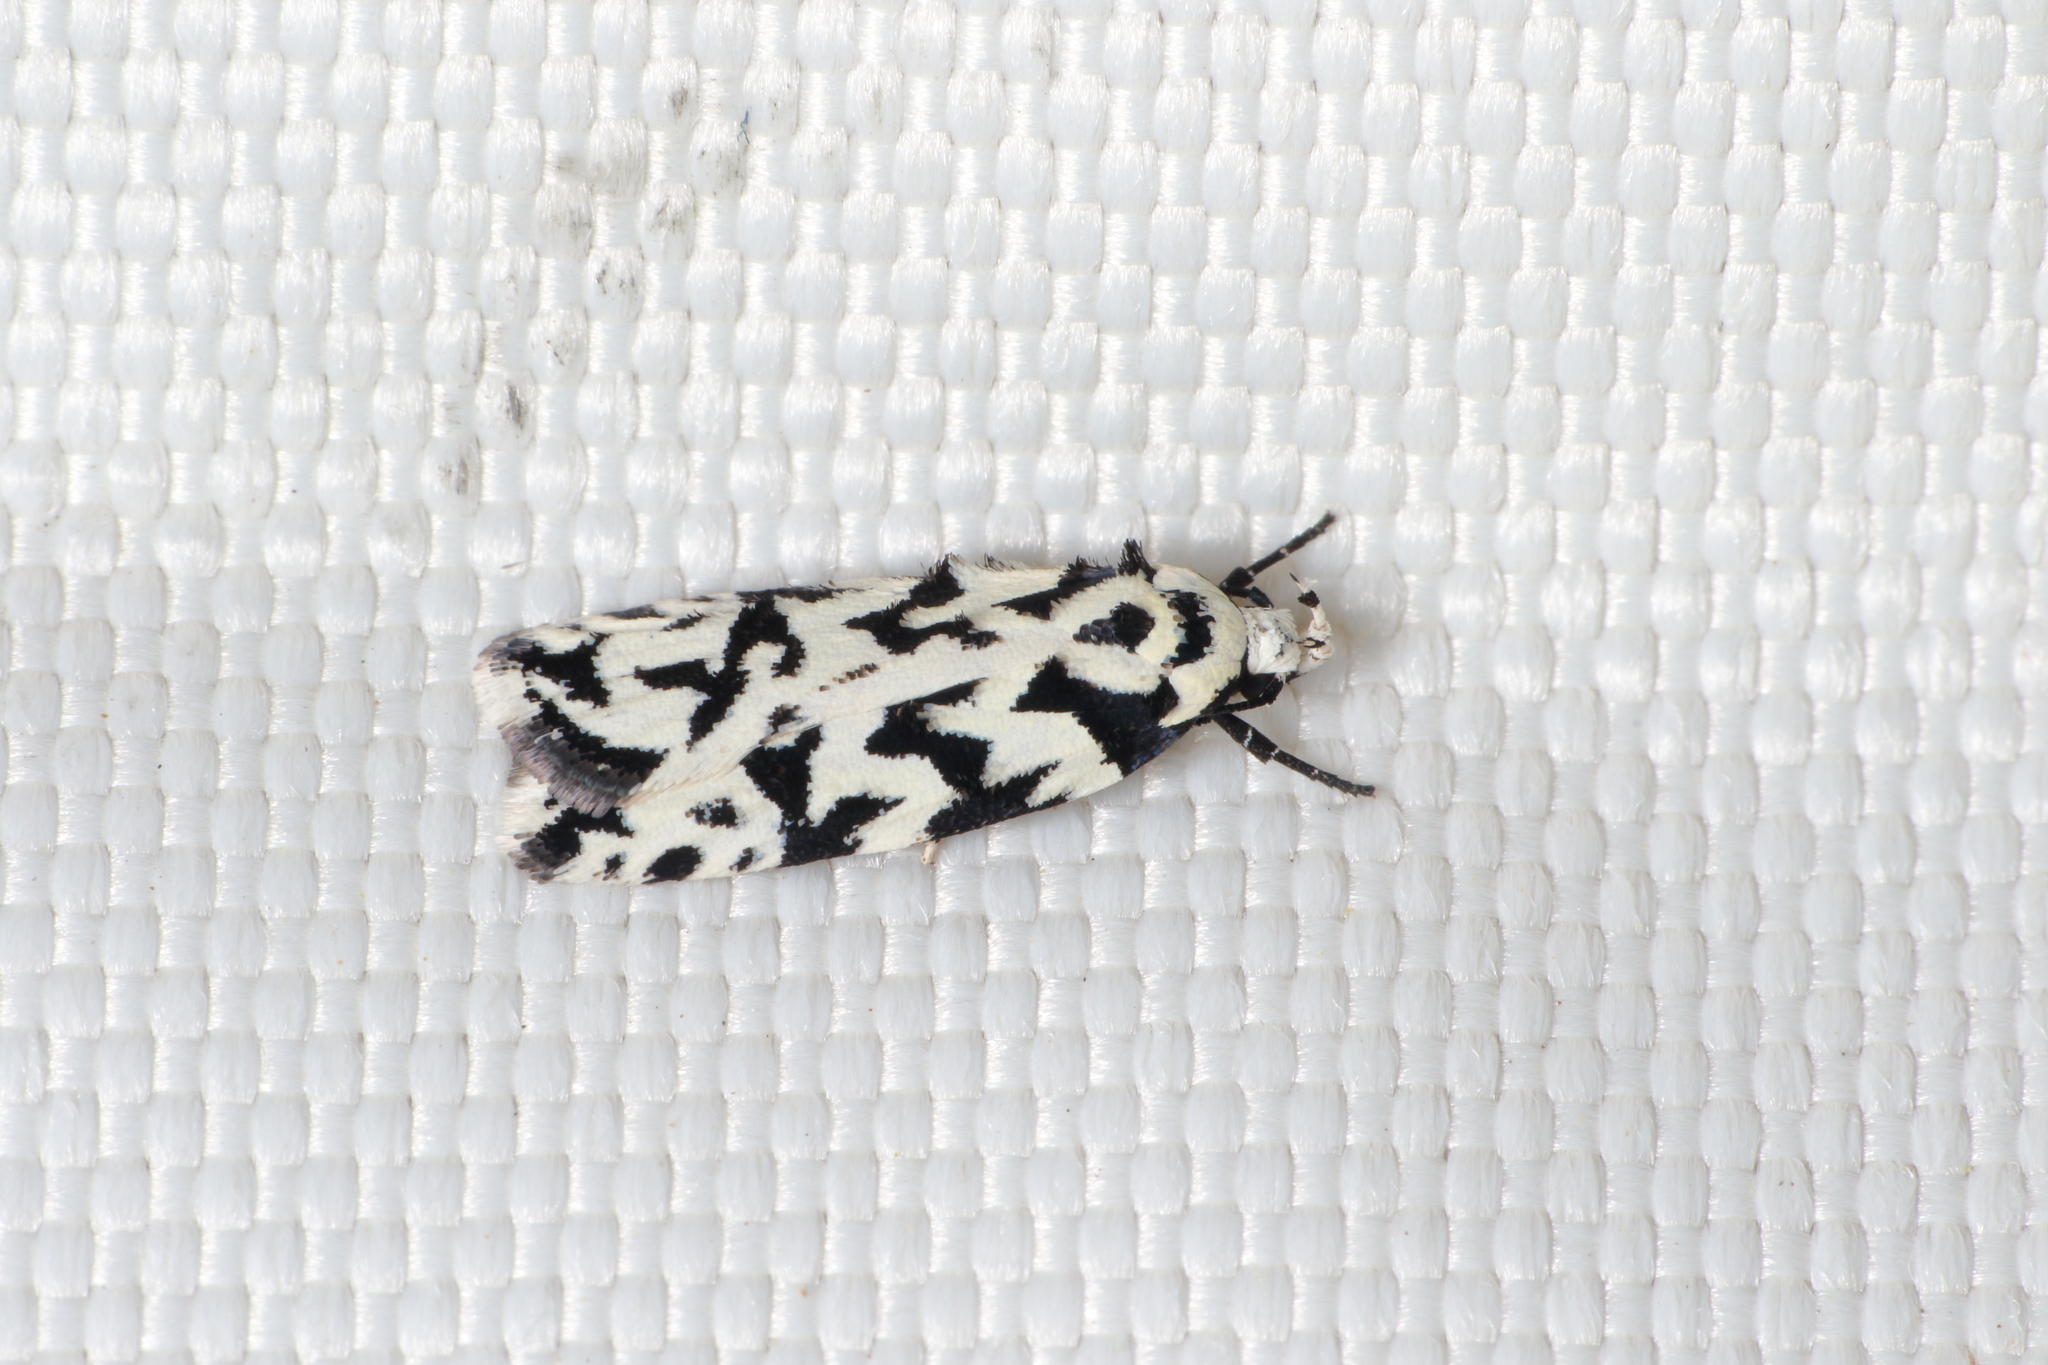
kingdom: Animalia
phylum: Arthropoda
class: Insecta
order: Lepidoptera
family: Oecophoridae
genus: Izatha
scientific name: Izatha
